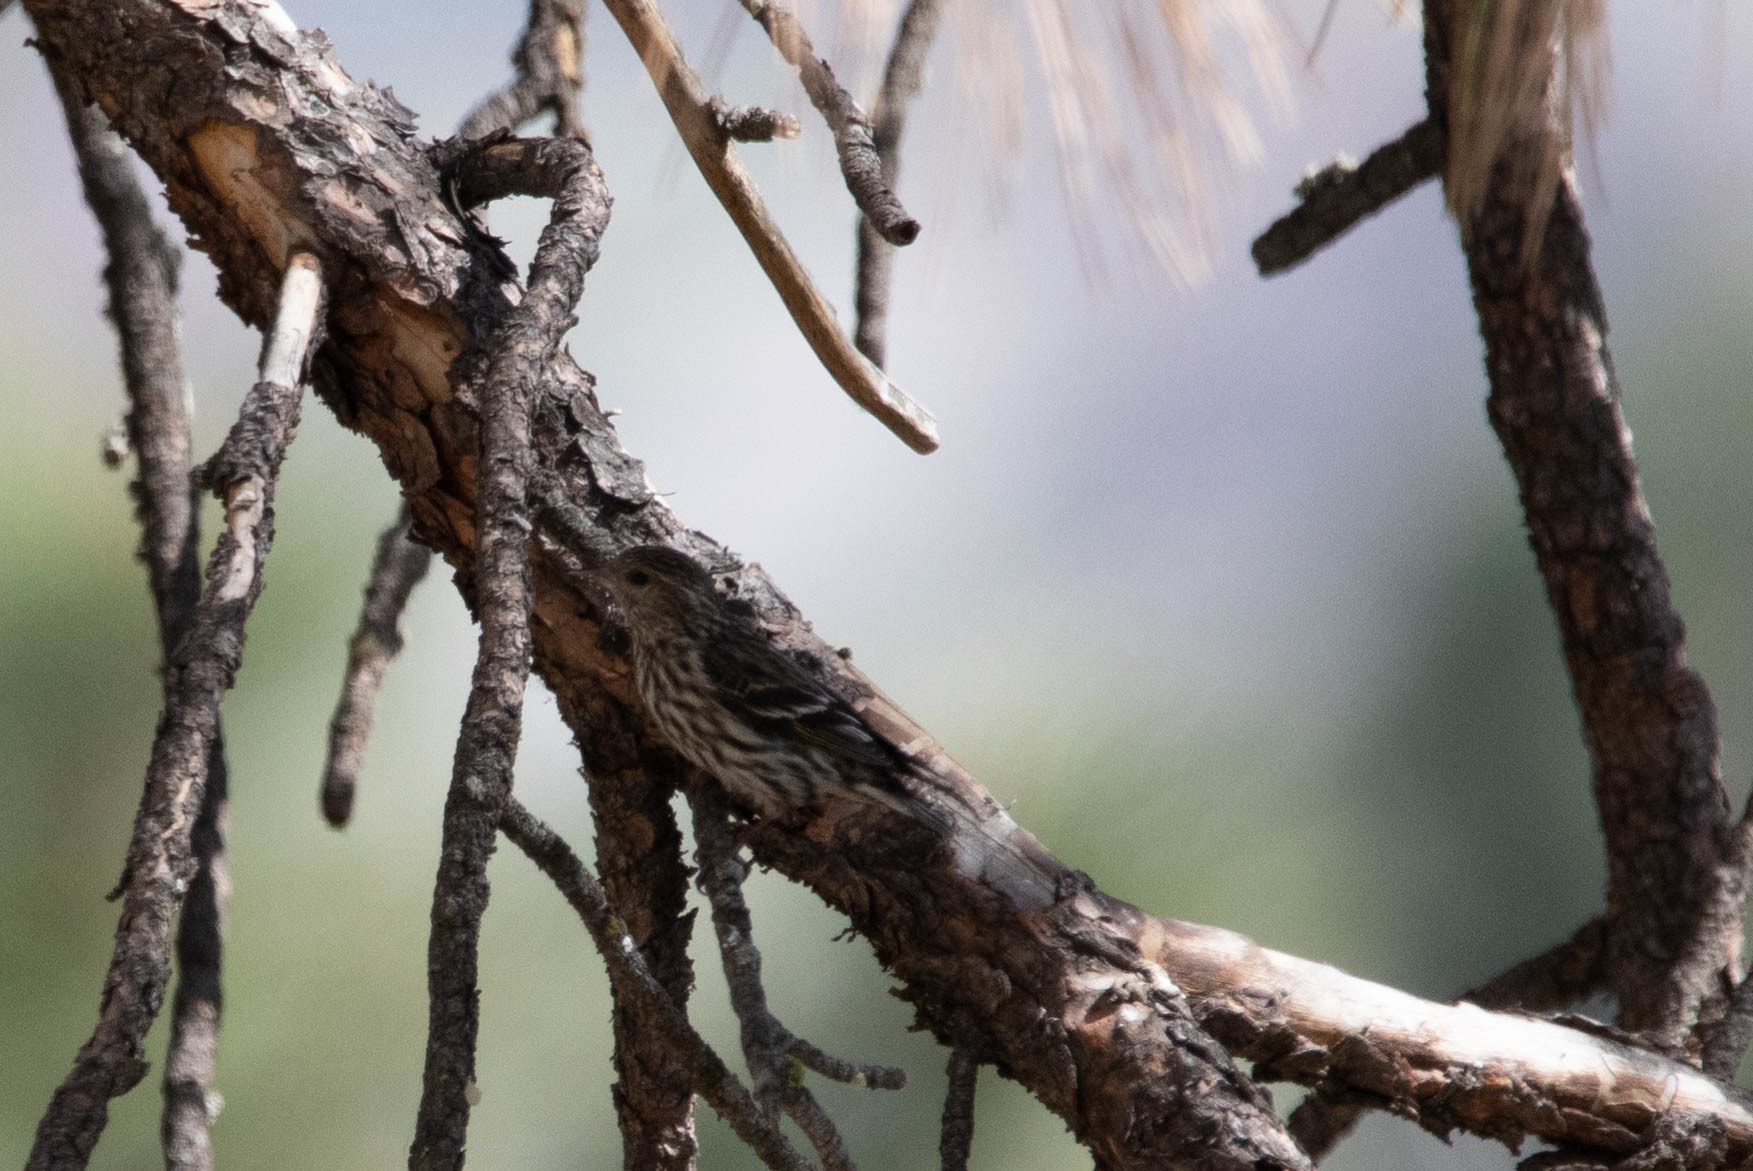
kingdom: Animalia
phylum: Chordata
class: Aves
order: Passeriformes
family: Fringillidae
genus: Spinus
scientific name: Spinus pinus
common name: Pine siskin
